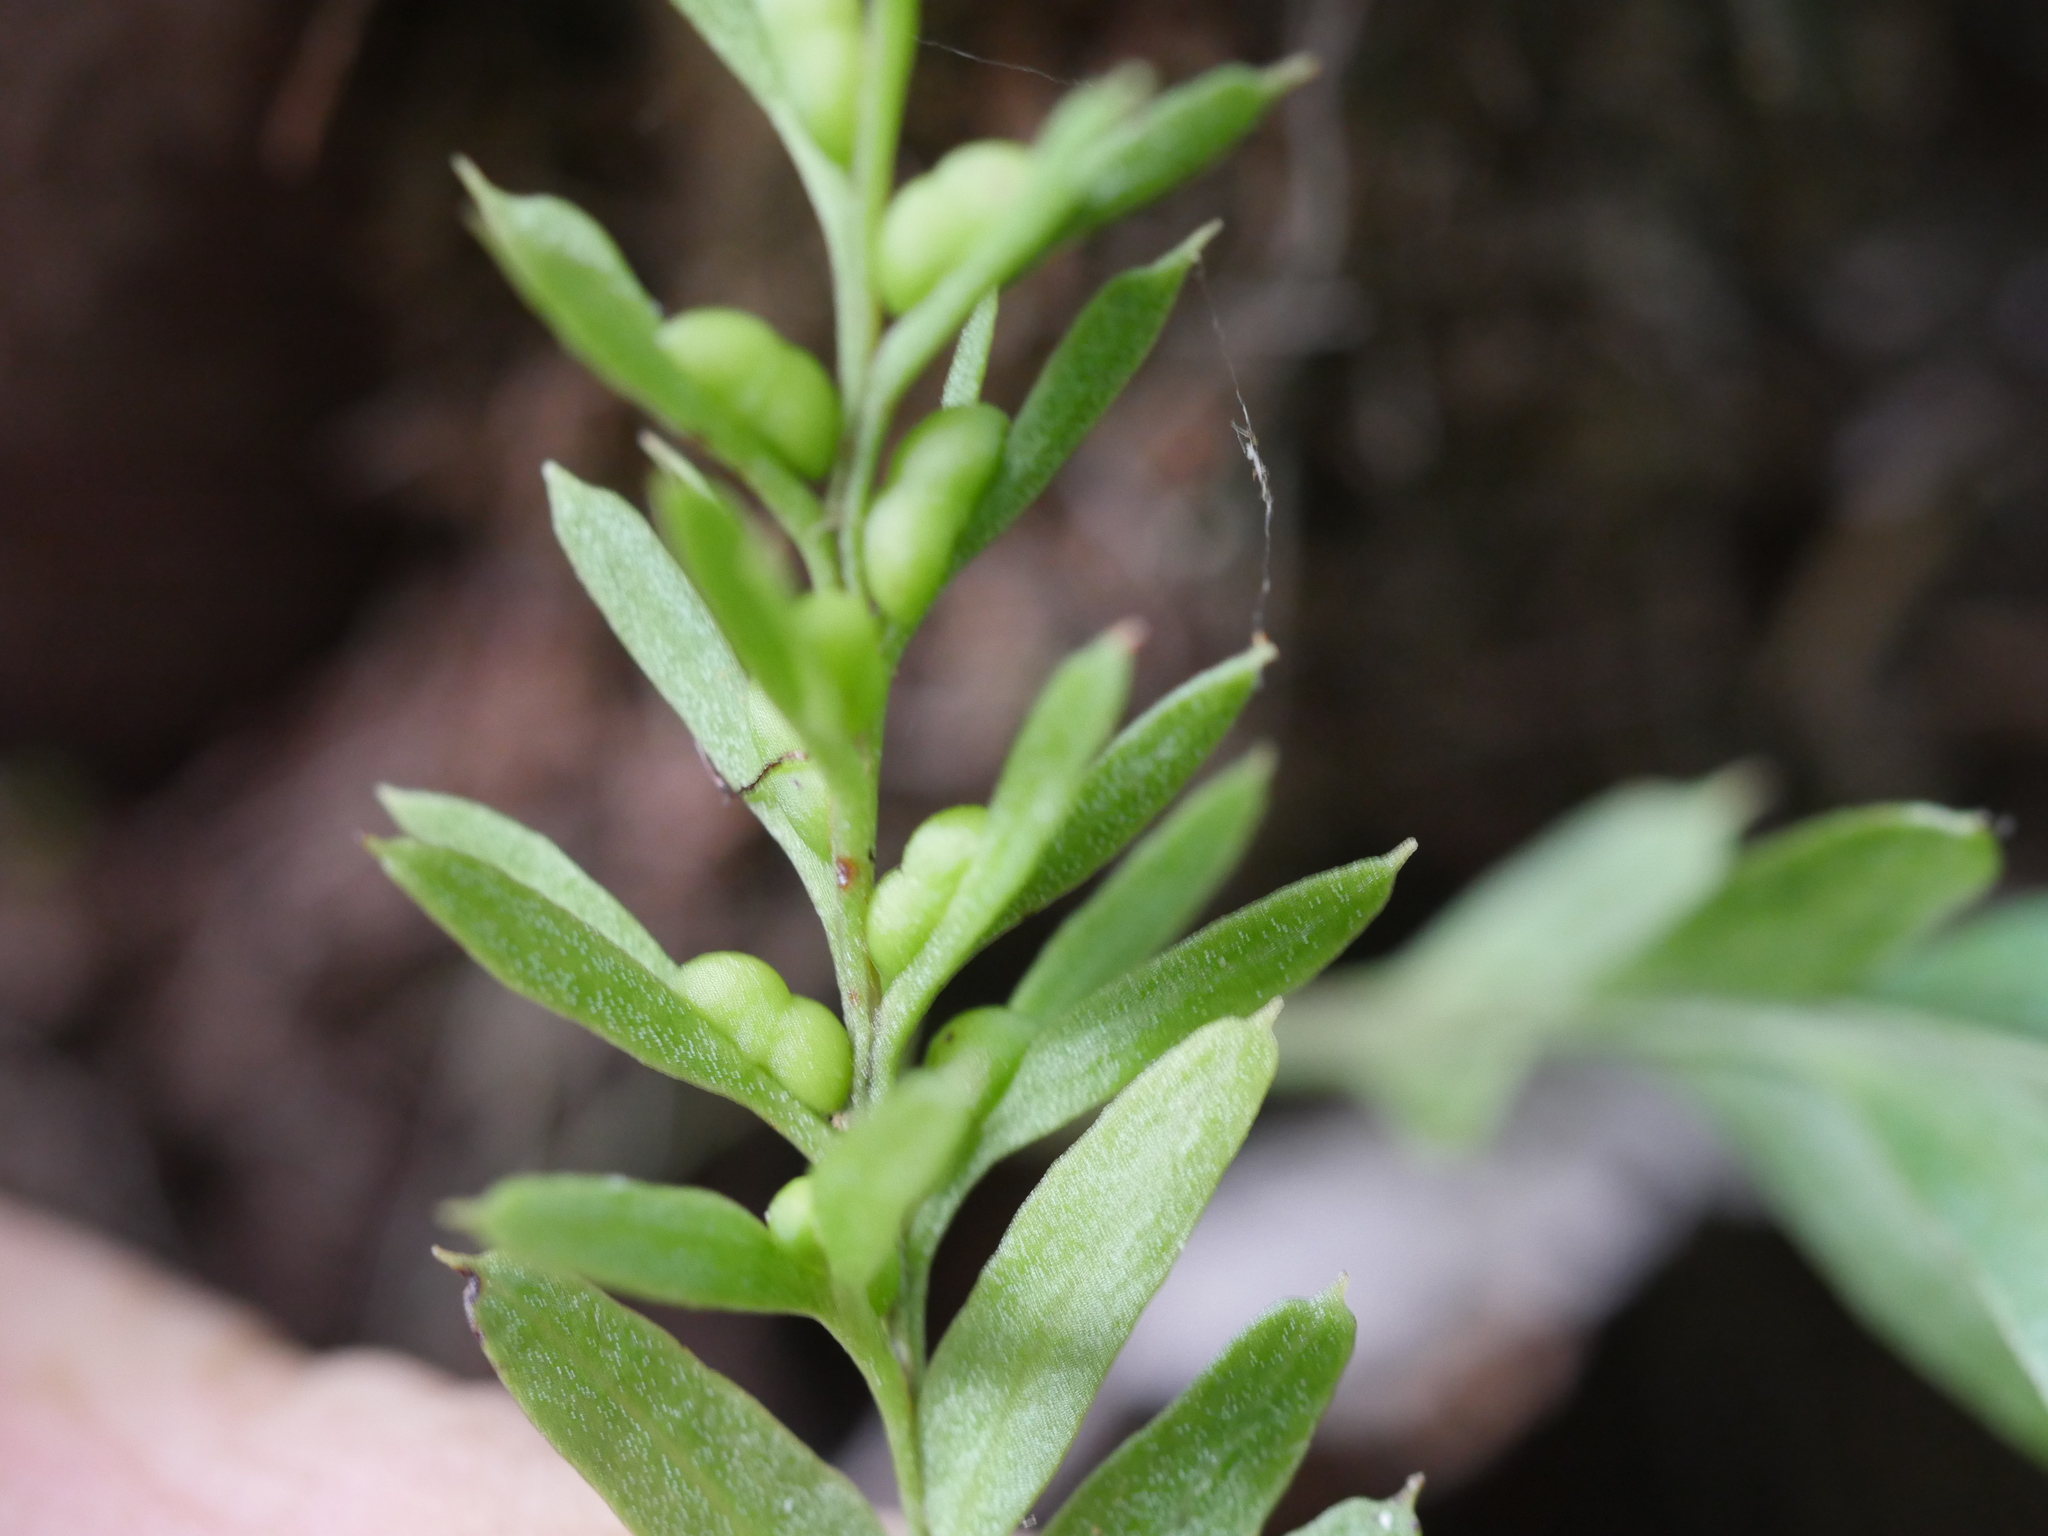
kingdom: Plantae
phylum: Tracheophyta
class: Polypodiopsida
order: Psilotales
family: Psilotaceae
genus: Tmesipteris
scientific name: Tmesipteris elongata
